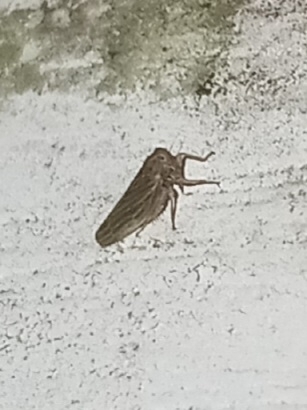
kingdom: Animalia
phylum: Arthropoda
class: Insecta
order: Hemiptera
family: Cicadellidae
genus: Agallia
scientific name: Agallia constricta
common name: The constricted leafhopper
